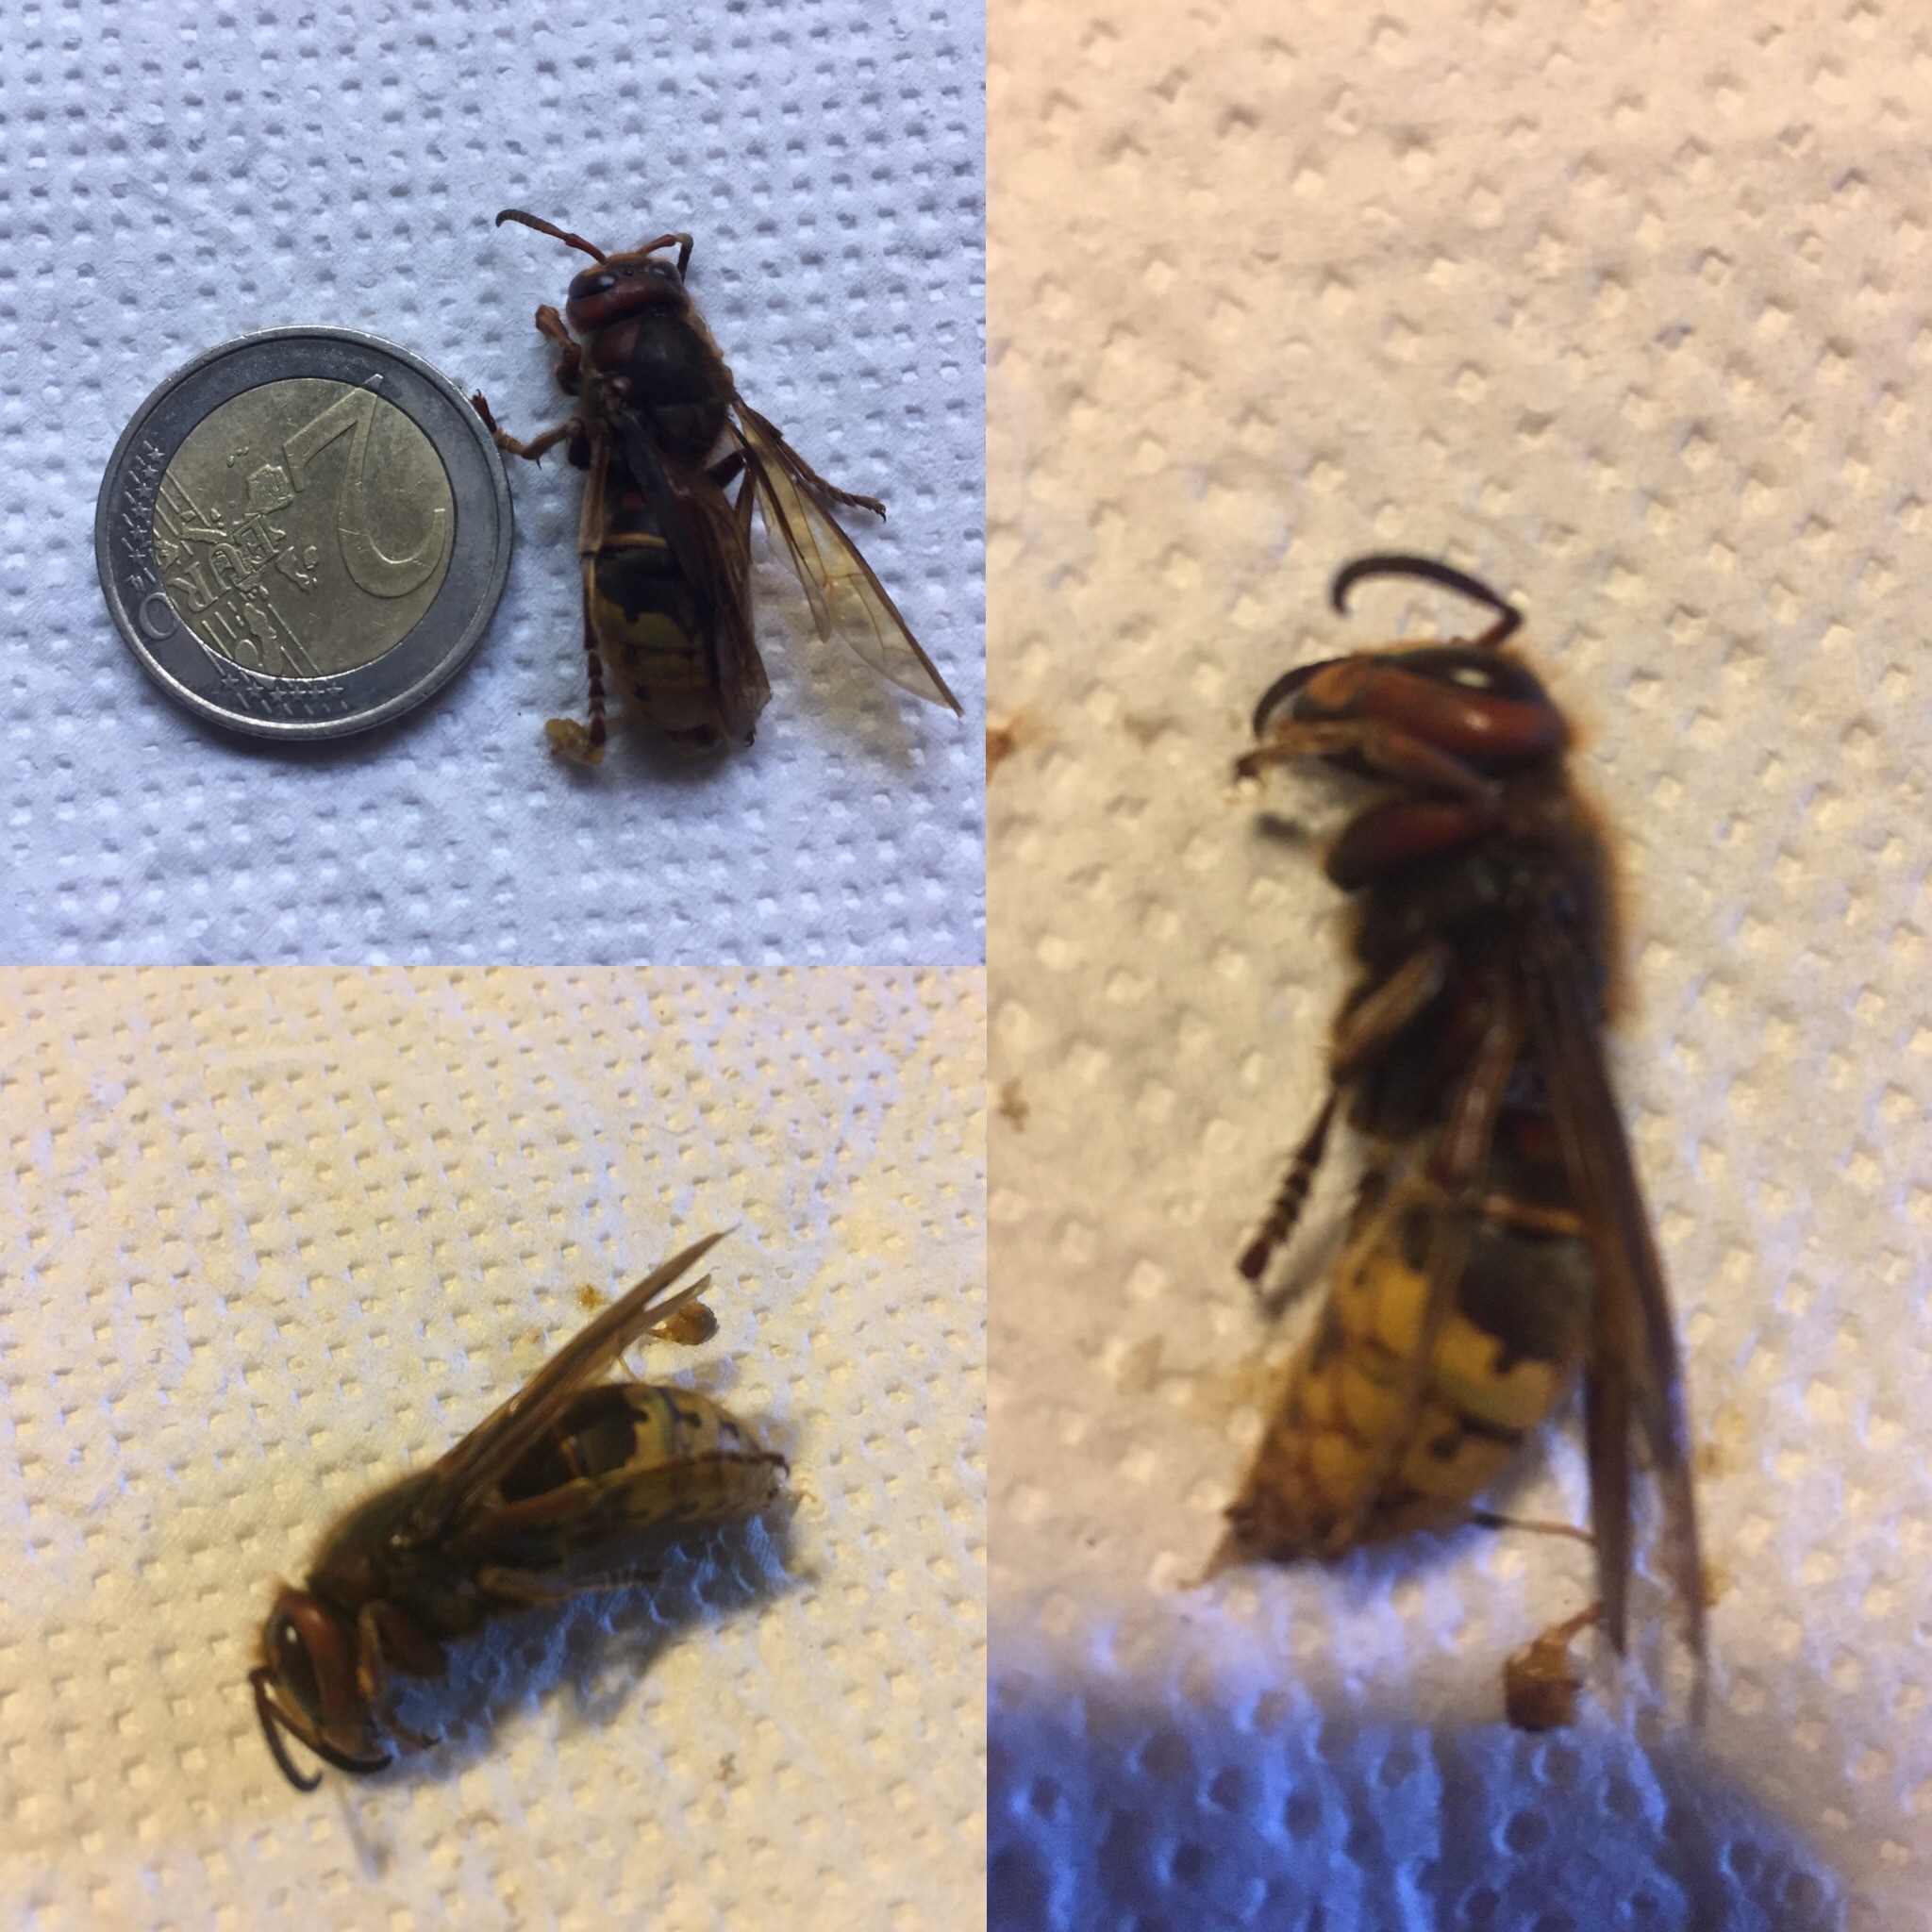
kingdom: Animalia
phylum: Arthropoda
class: Insecta
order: Hymenoptera
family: Vespidae
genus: Vespa
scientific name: Vespa crabro
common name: Hornet
